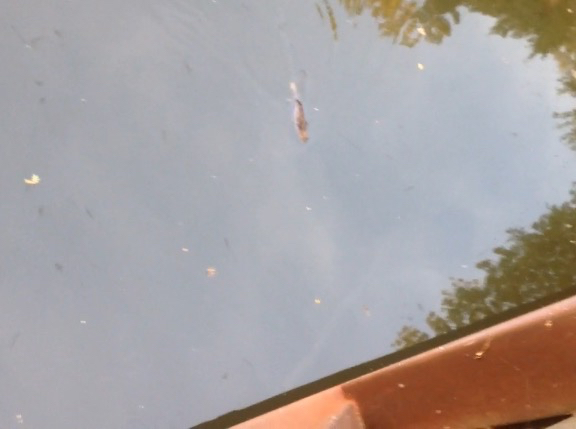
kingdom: Animalia
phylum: Chordata
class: Mammalia
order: Rodentia
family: Castoridae
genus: Castor
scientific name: Castor canadensis
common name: American beaver
